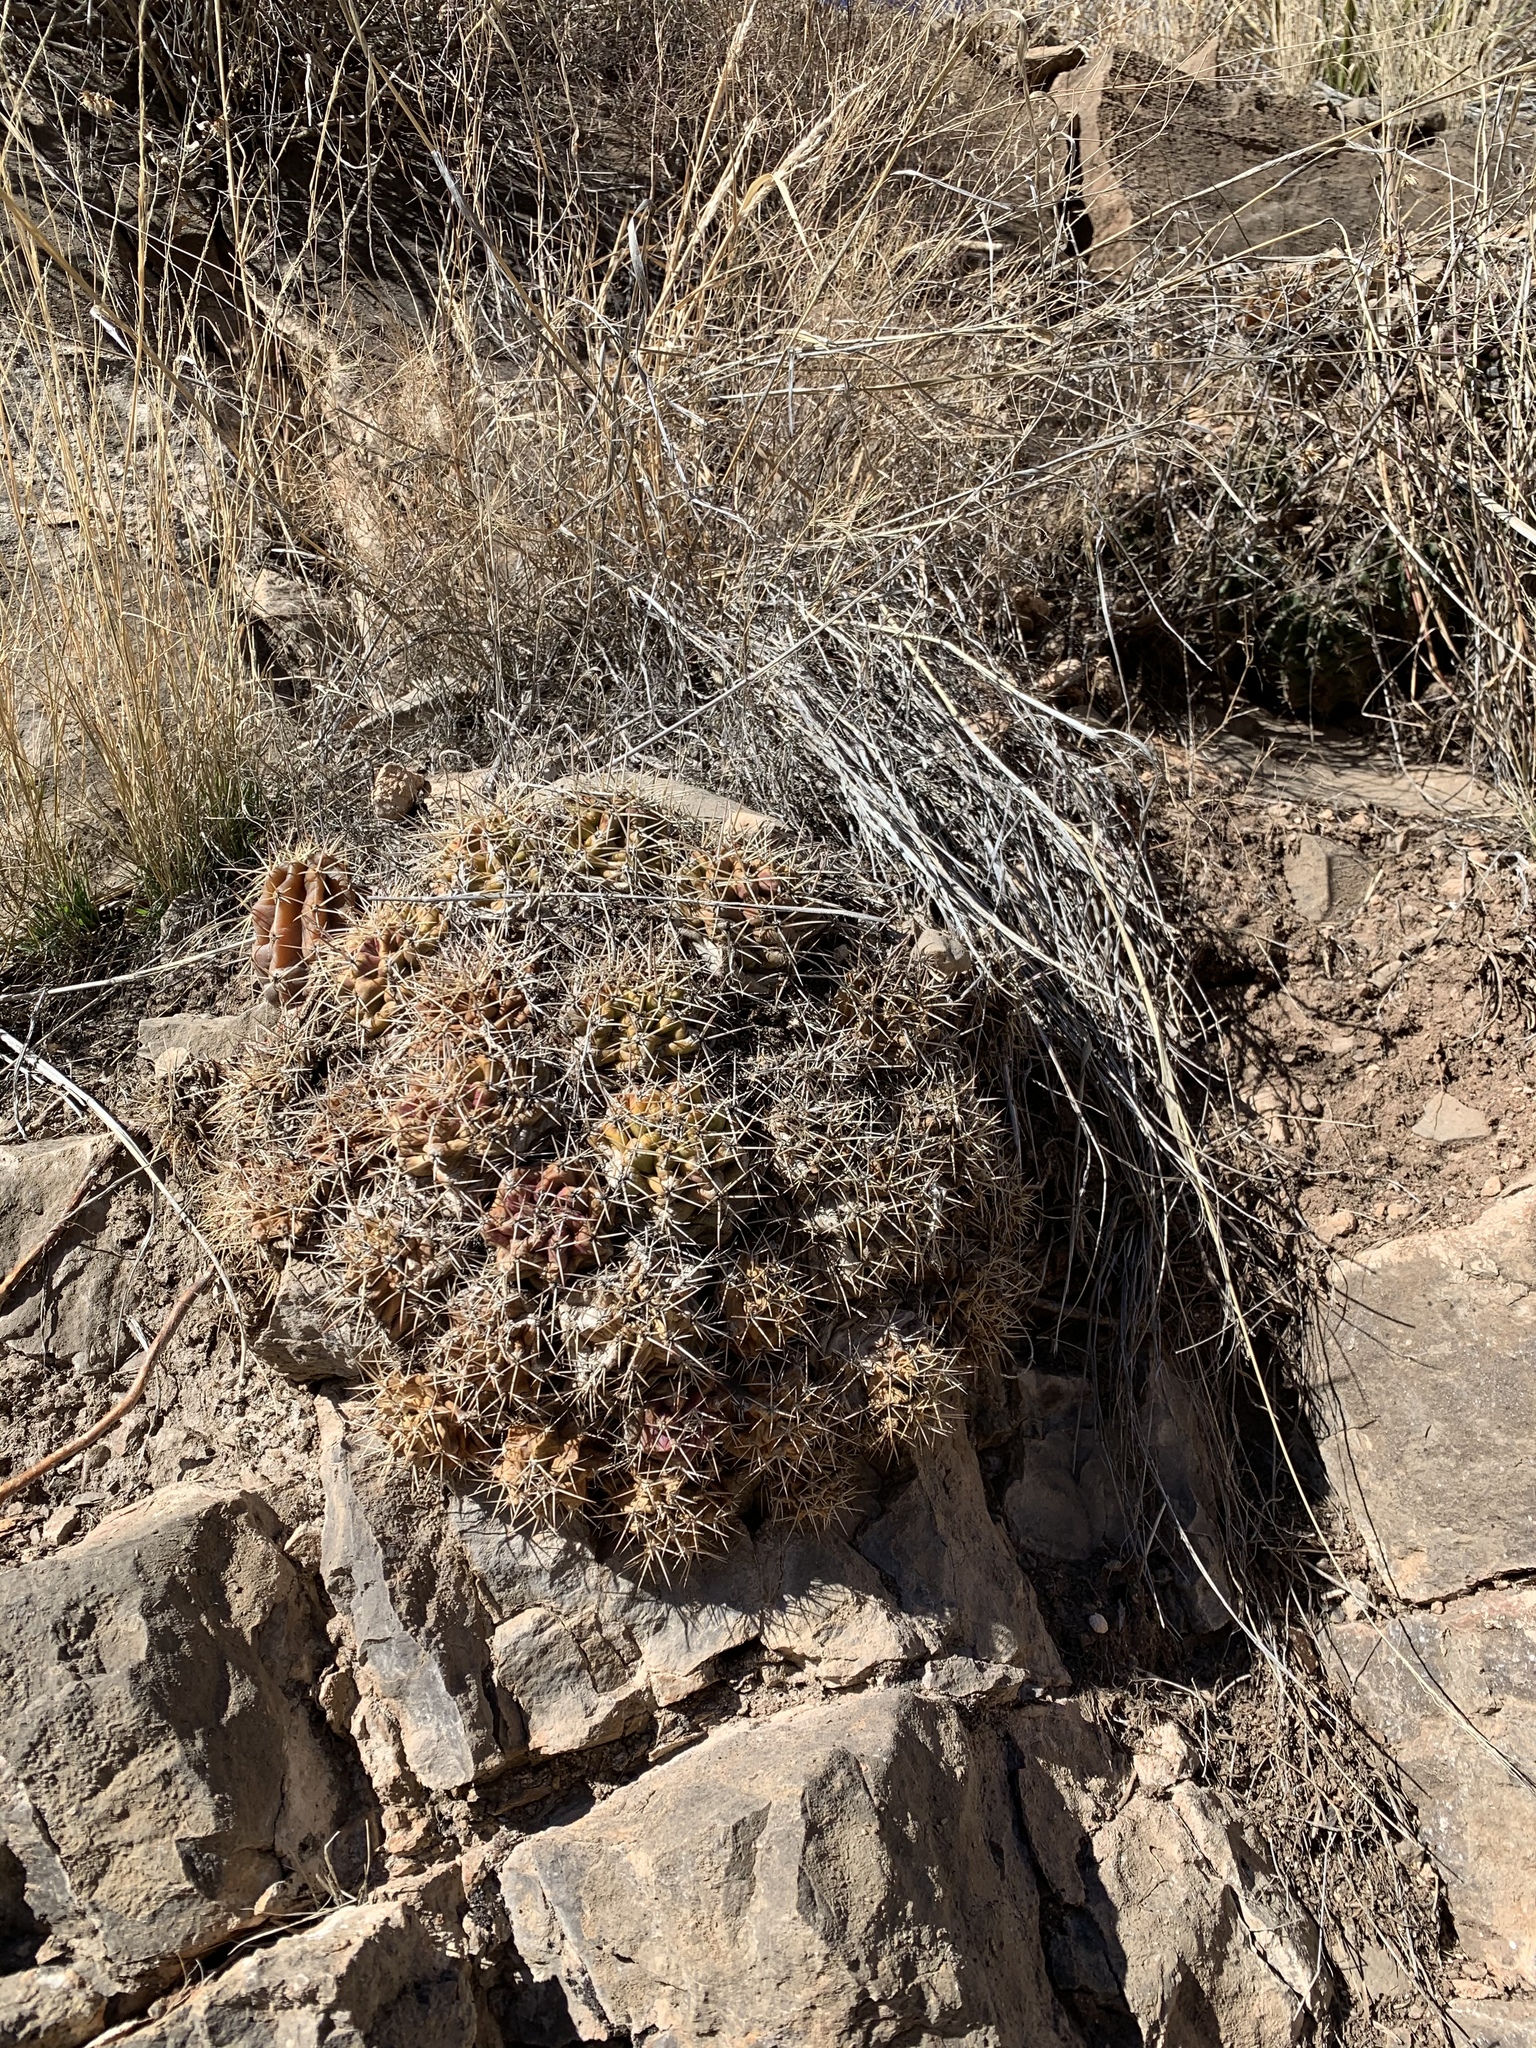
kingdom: Plantae
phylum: Tracheophyta
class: Magnoliopsida
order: Caryophyllales
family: Cactaceae
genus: Echinocereus
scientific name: Echinocereus coccineus
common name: Scarlet hedgehog cactus
